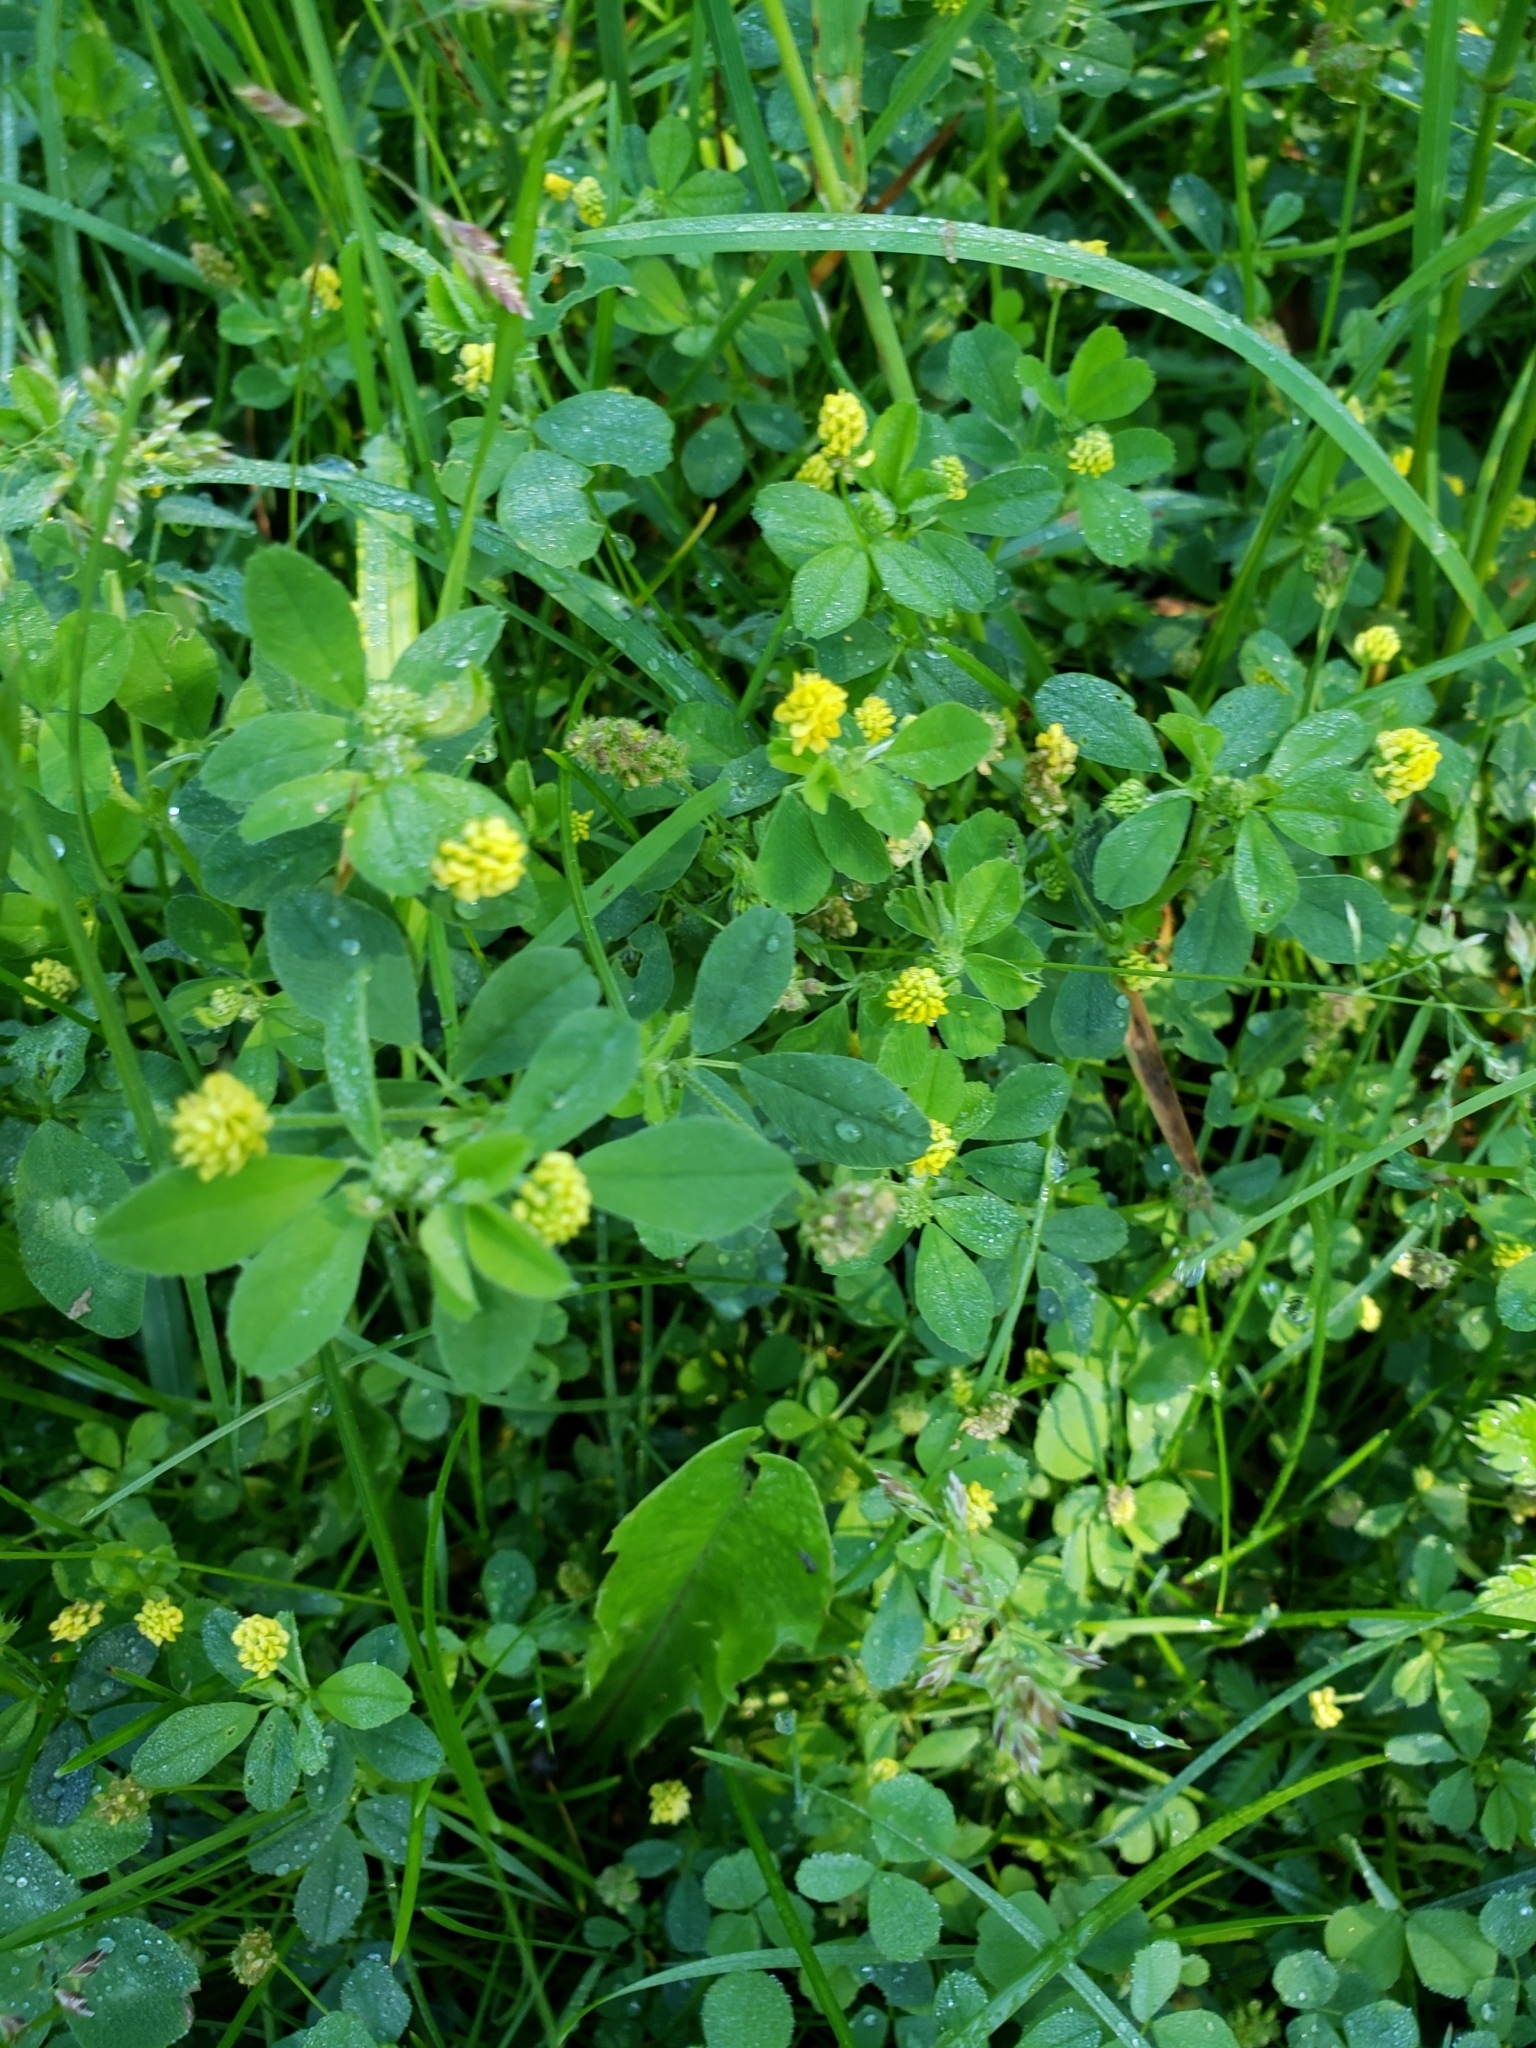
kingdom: Plantae
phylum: Tracheophyta
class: Magnoliopsida
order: Fabales
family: Fabaceae
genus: Medicago
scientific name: Medicago lupulina
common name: Black medick
